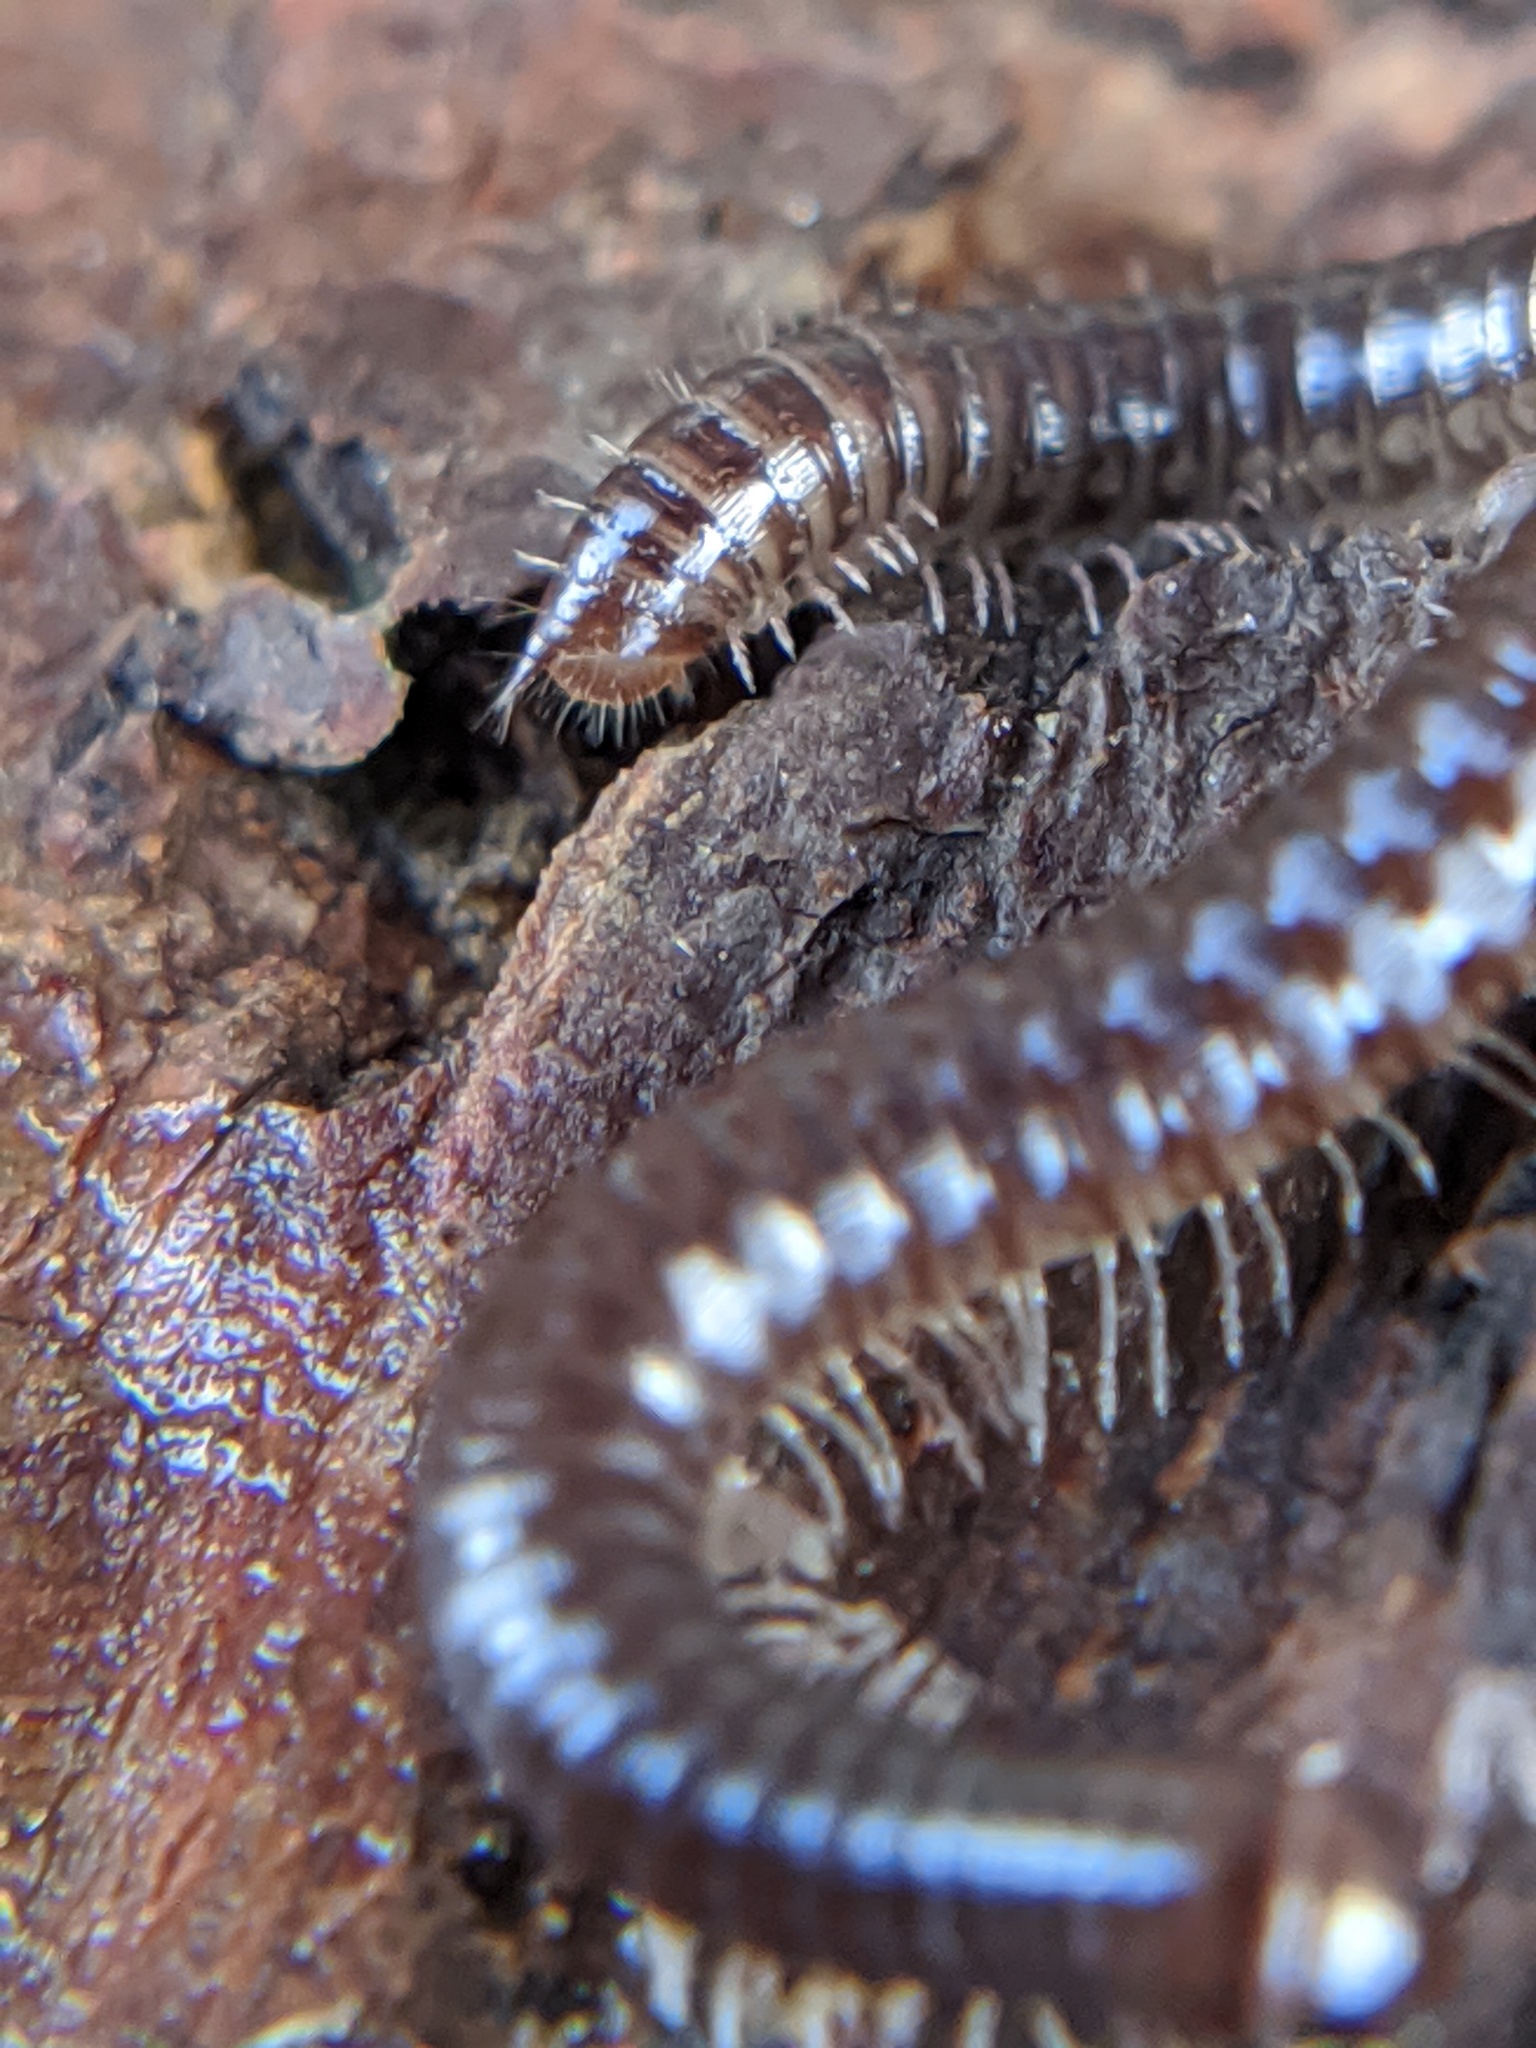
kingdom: Animalia
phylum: Arthropoda
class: Diplopoda
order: Julida
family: Julidae
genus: Ophyiulus
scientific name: Ophyiulus pilosus
